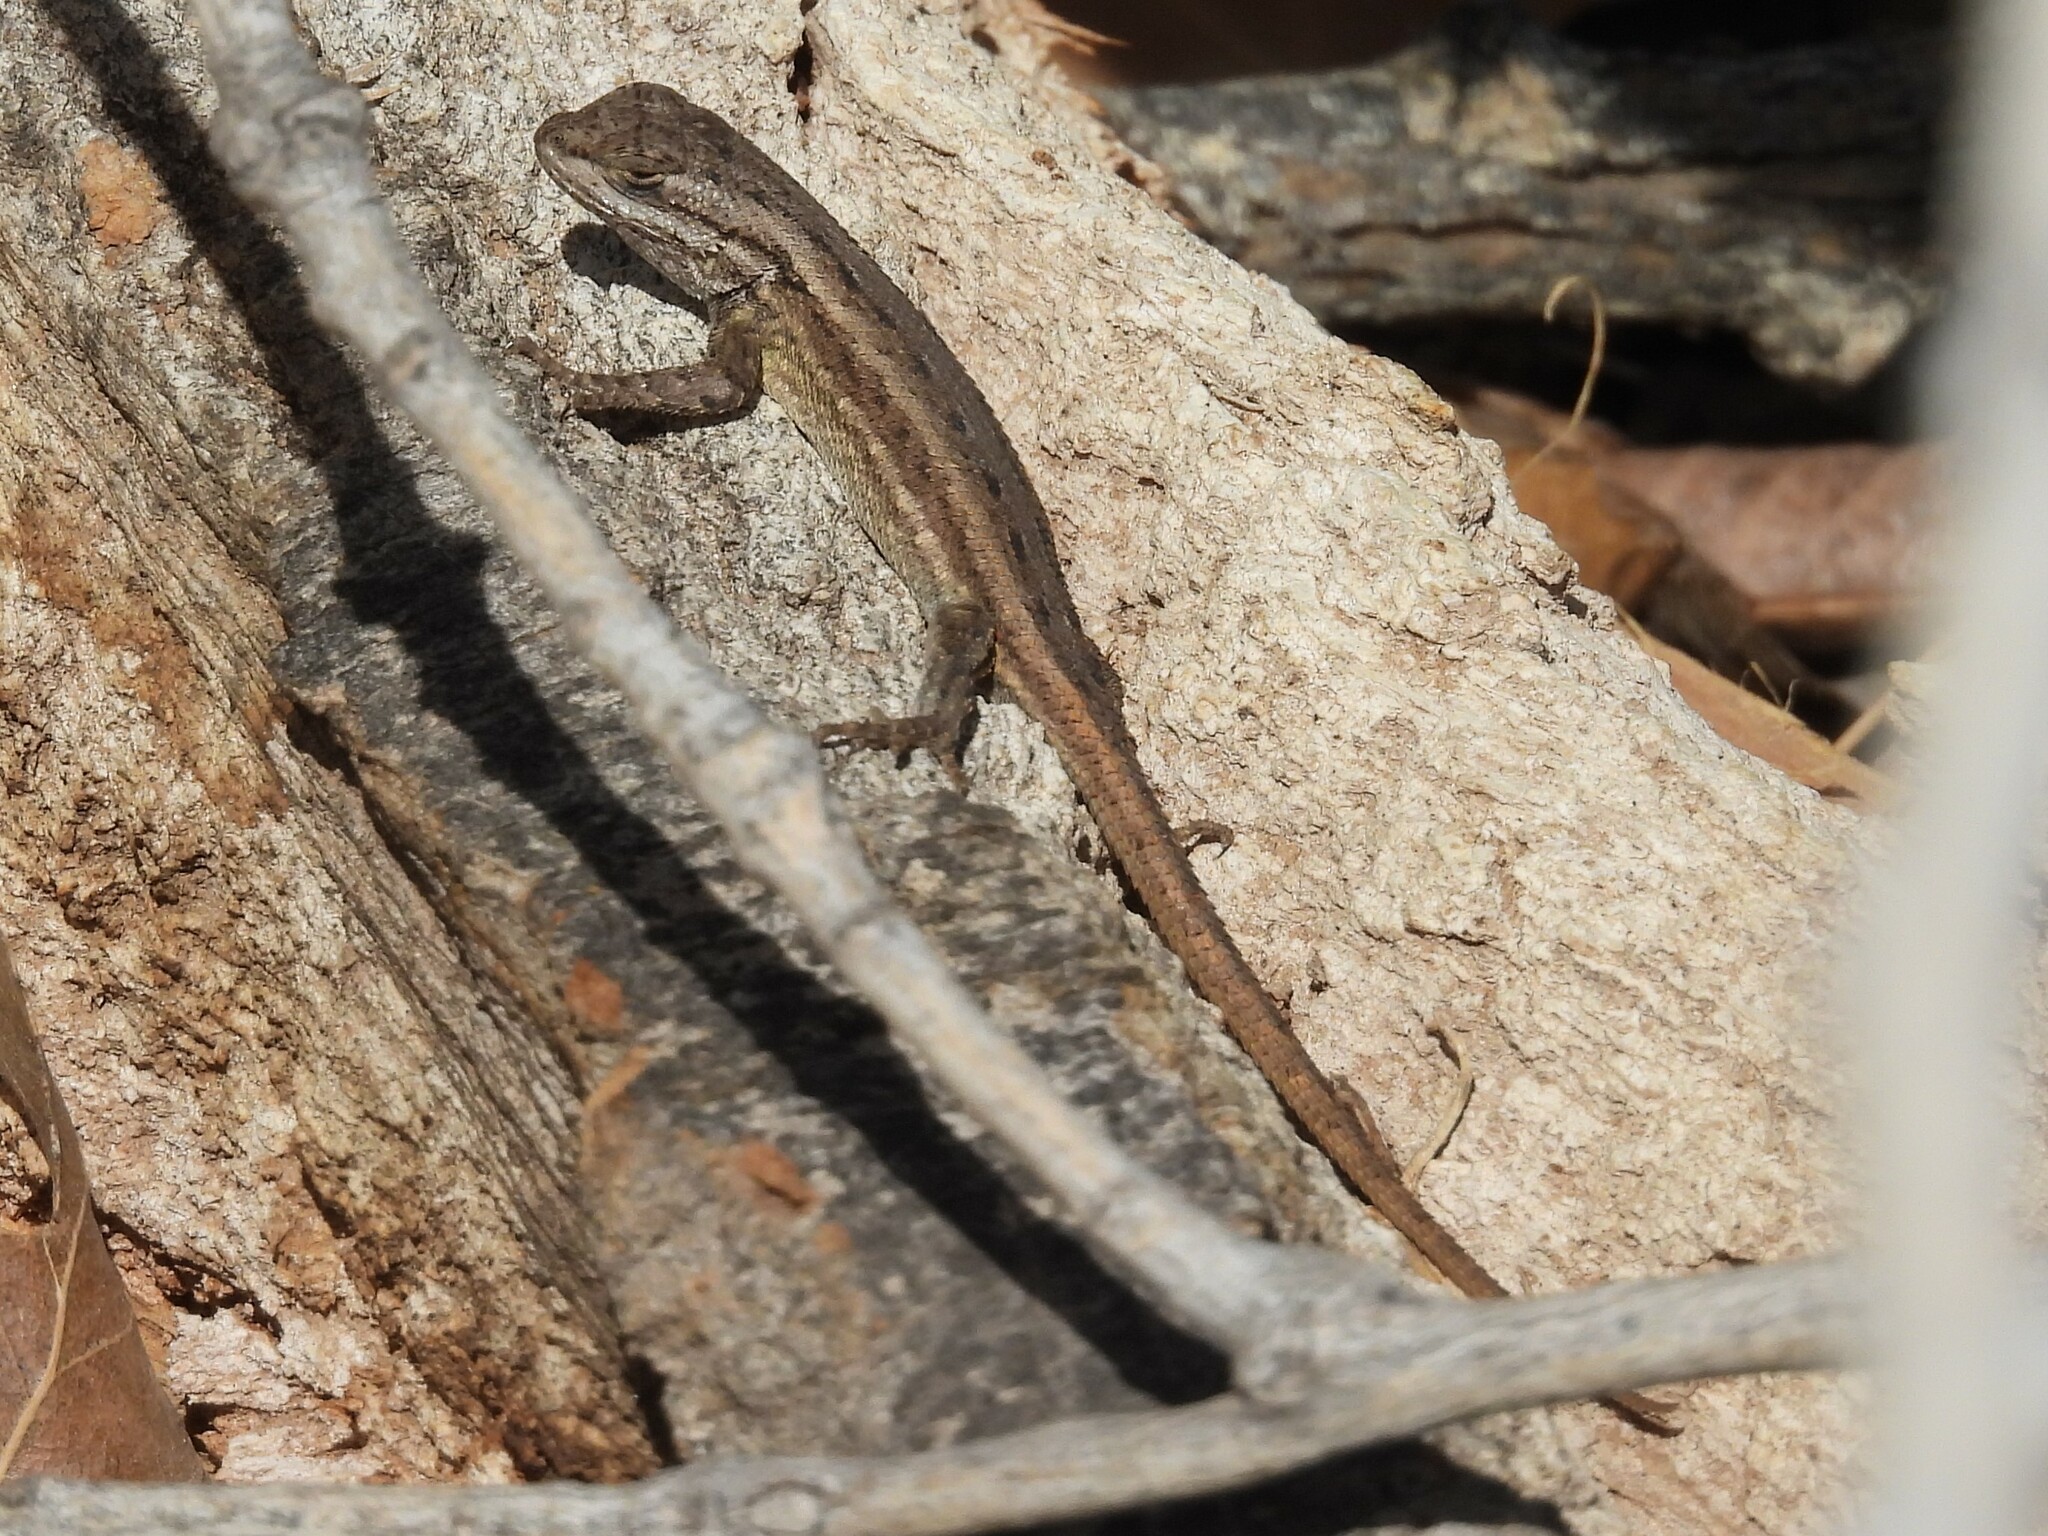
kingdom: Animalia
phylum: Chordata
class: Squamata
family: Phrynosomatidae
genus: Sceloporus
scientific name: Sceloporus cowlesi
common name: White sands prairie lizard
